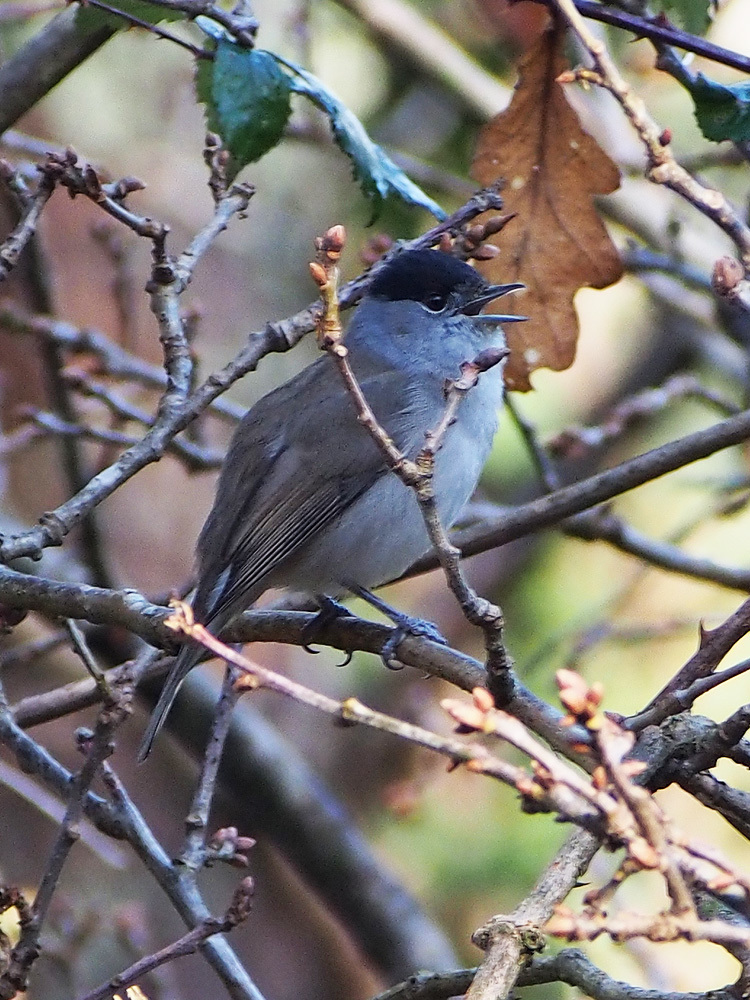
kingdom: Animalia
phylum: Chordata
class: Aves
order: Passeriformes
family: Sylviidae
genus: Sylvia
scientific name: Sylvia atricapilla
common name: Eurasian blackcap
